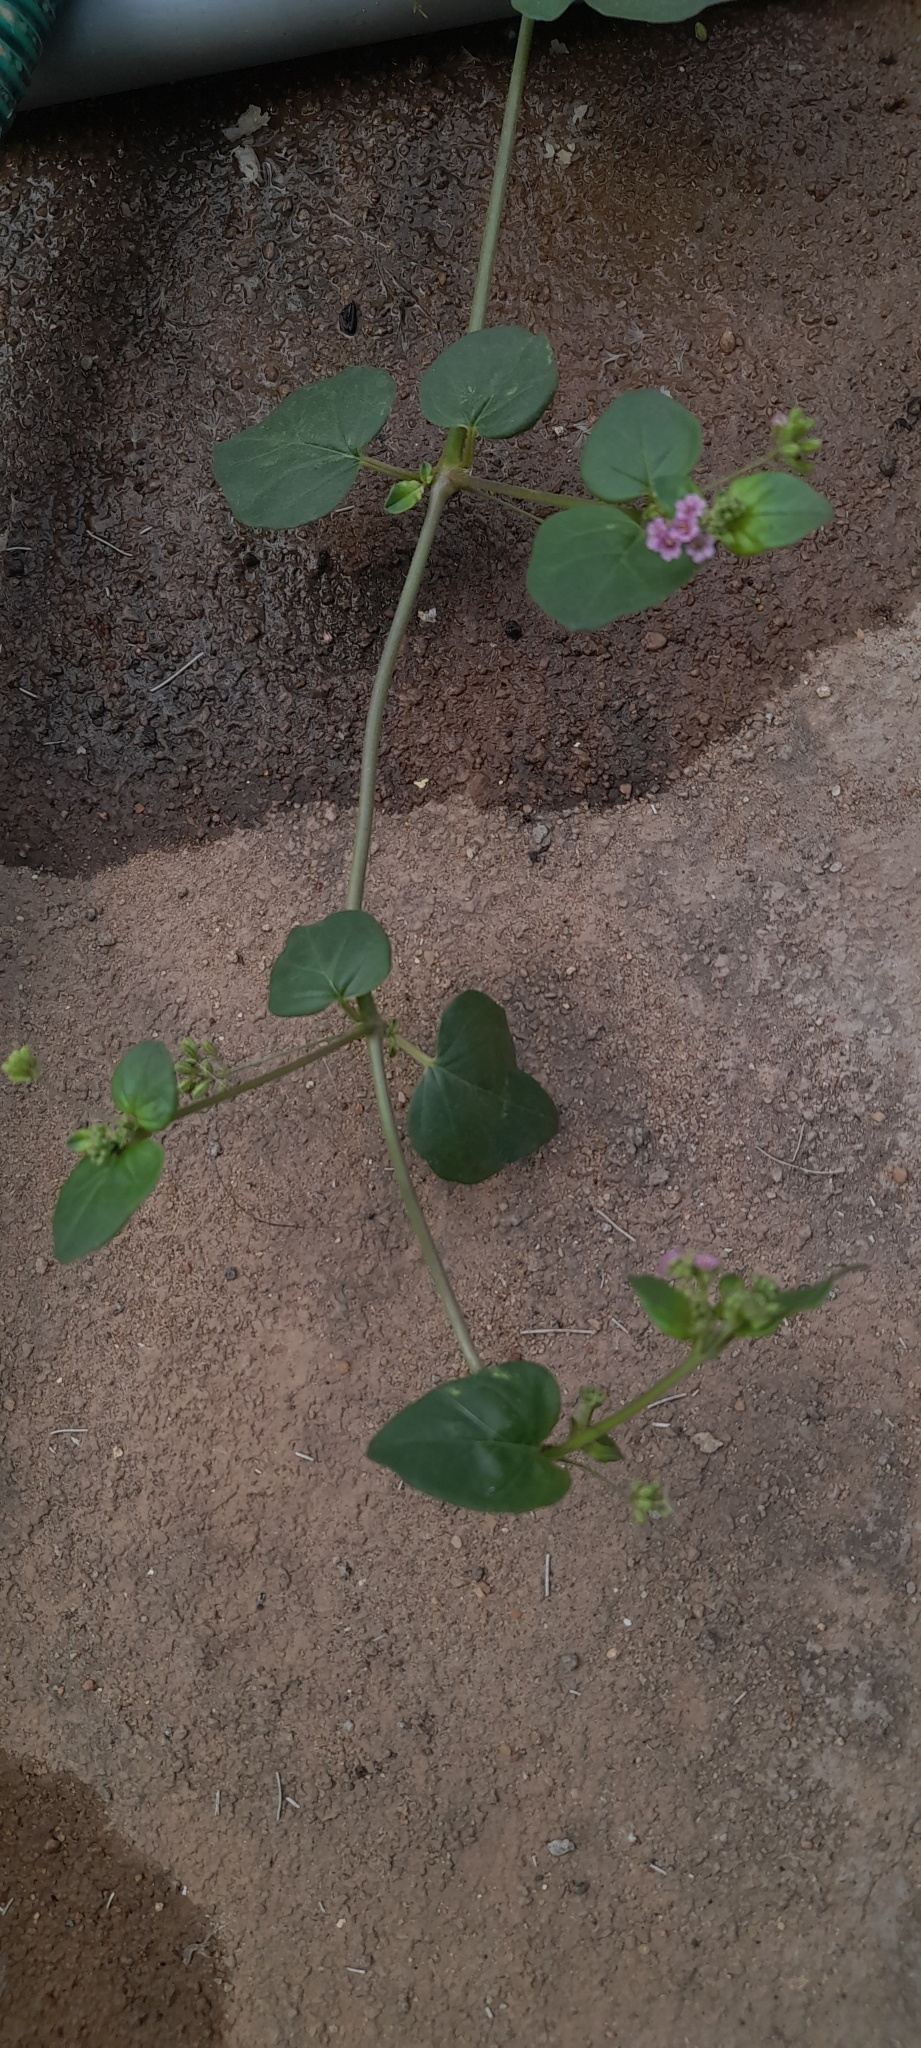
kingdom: Plantae
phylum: Tracheophyta
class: Magnoliopsida
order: Caryophyllales
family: Nyctaginaceae
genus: Boerhavia
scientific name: Boerhavia diffusa
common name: Red spiderling
